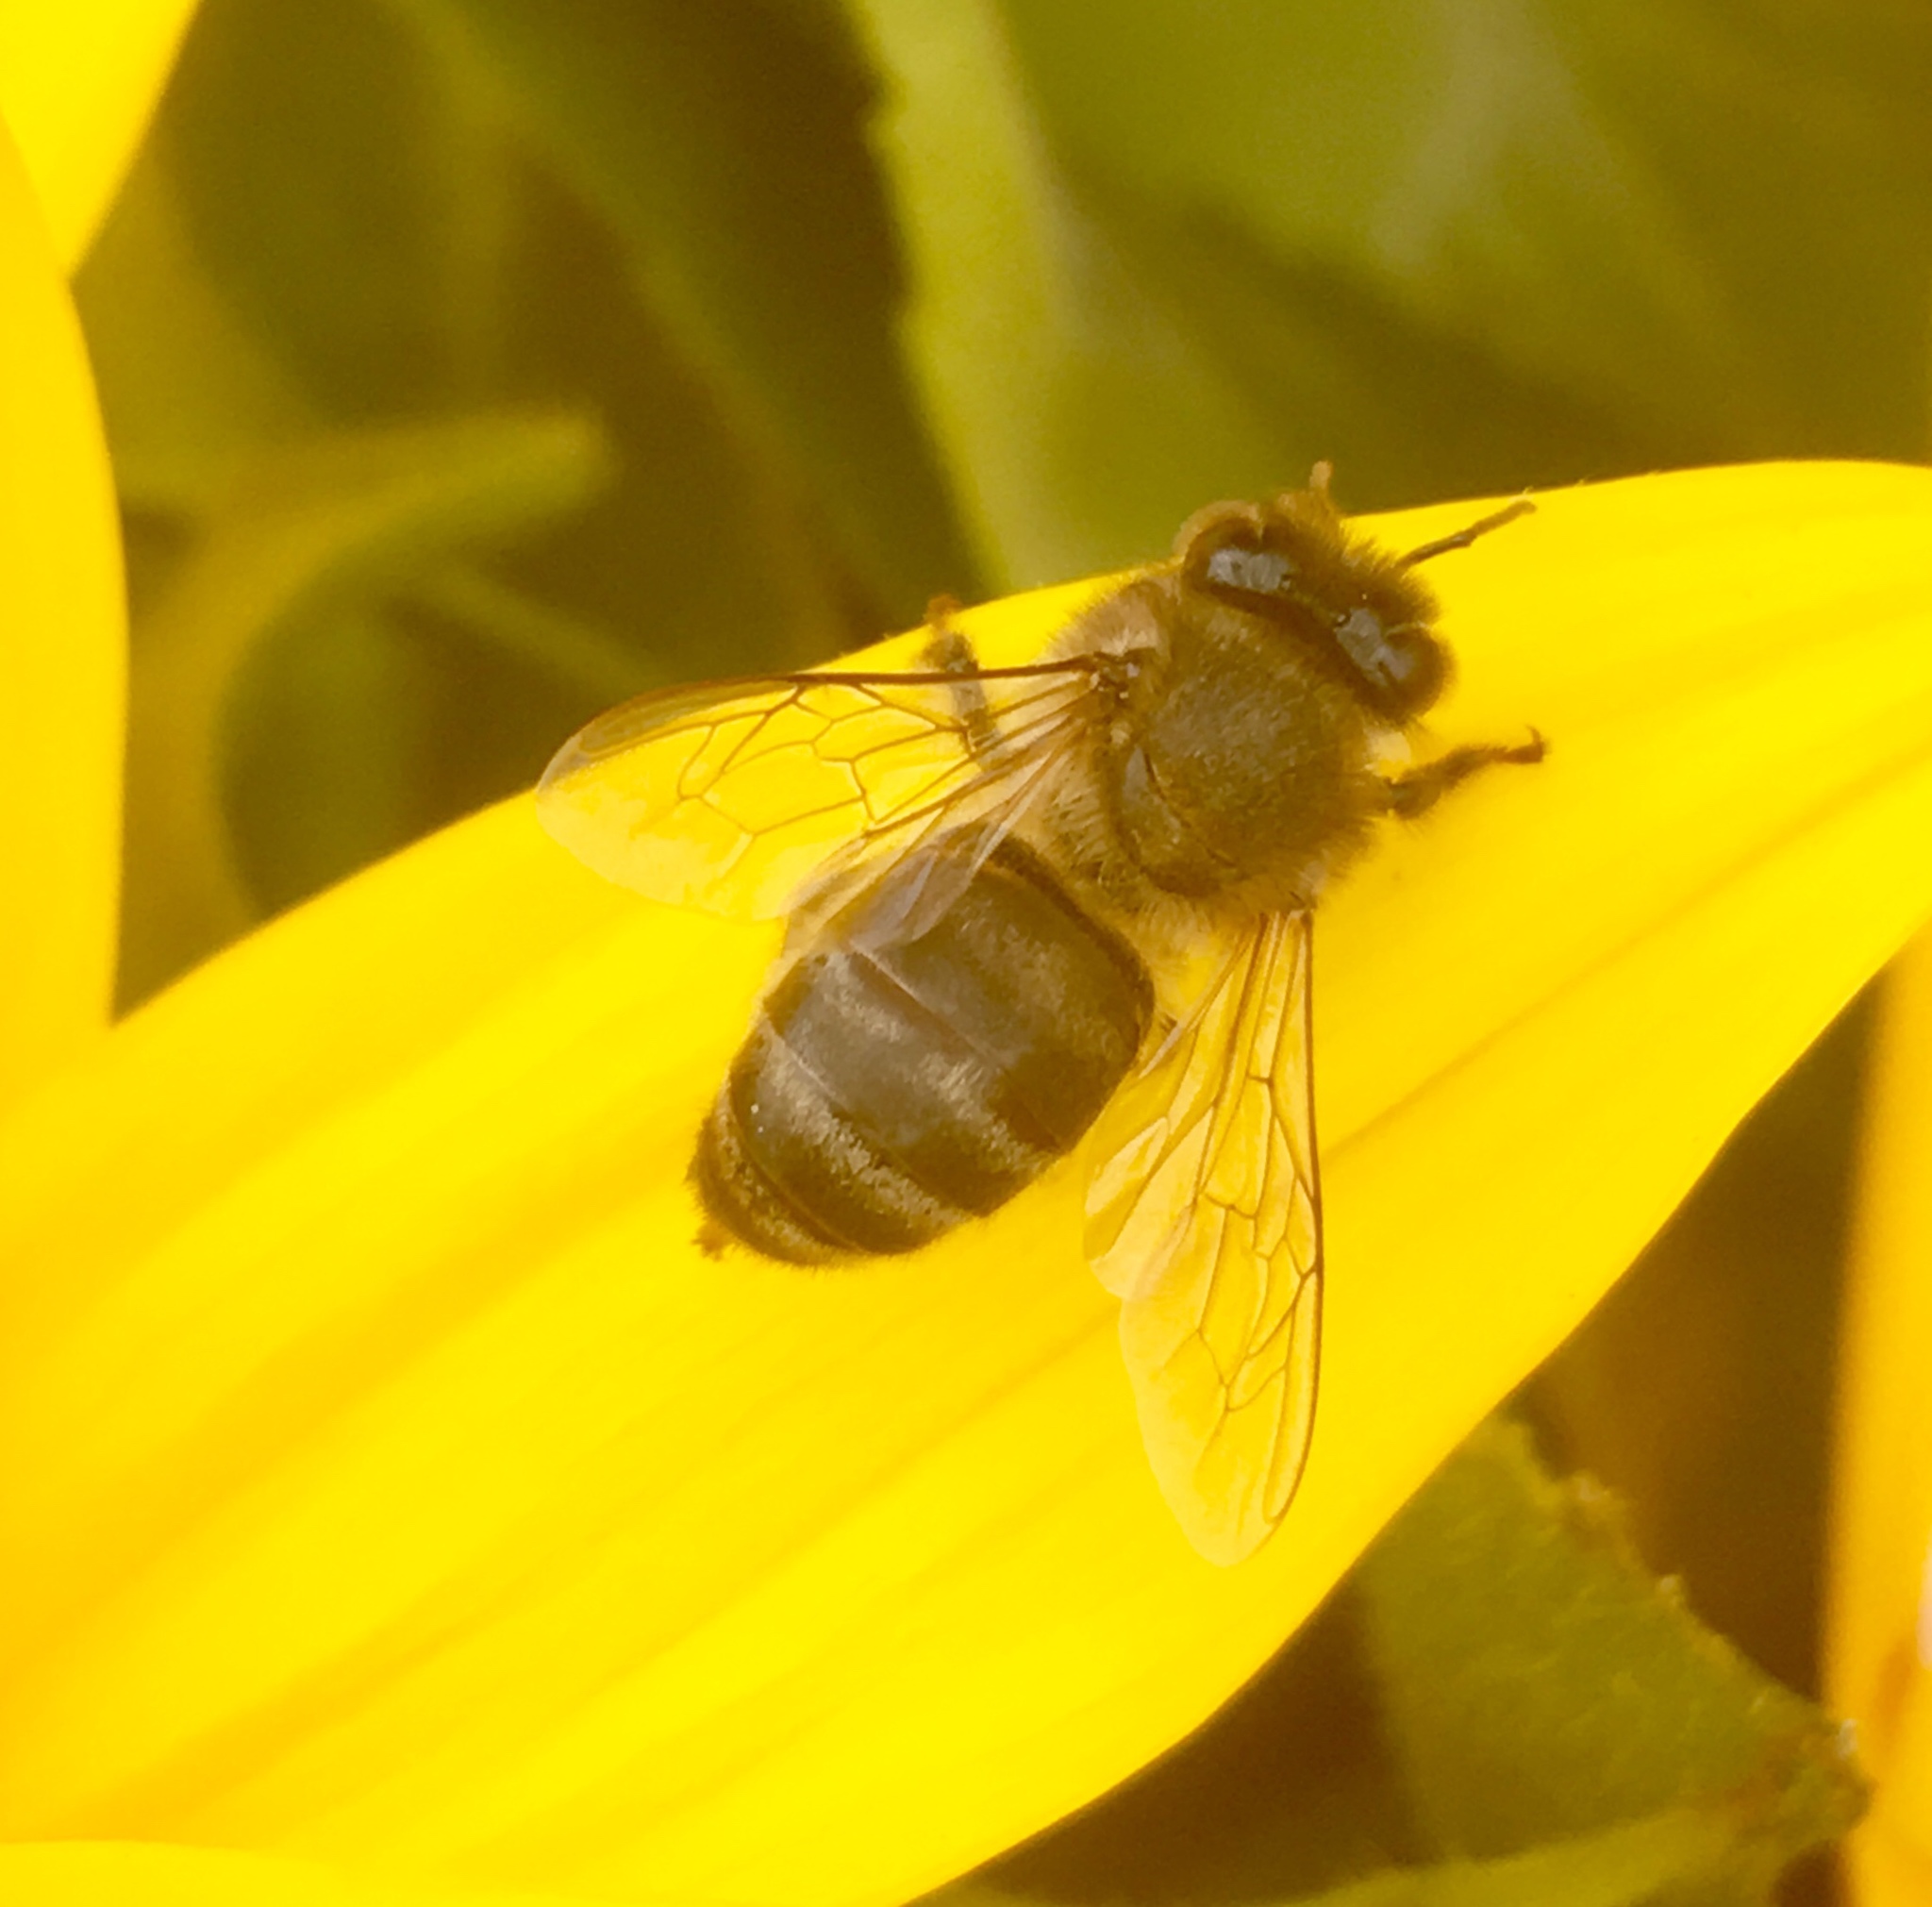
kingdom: Animalia
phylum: Arthropoda
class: Insecta
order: Hymenoptera
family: Apidae
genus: Apis
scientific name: Apis mellifera
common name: Honey bee
